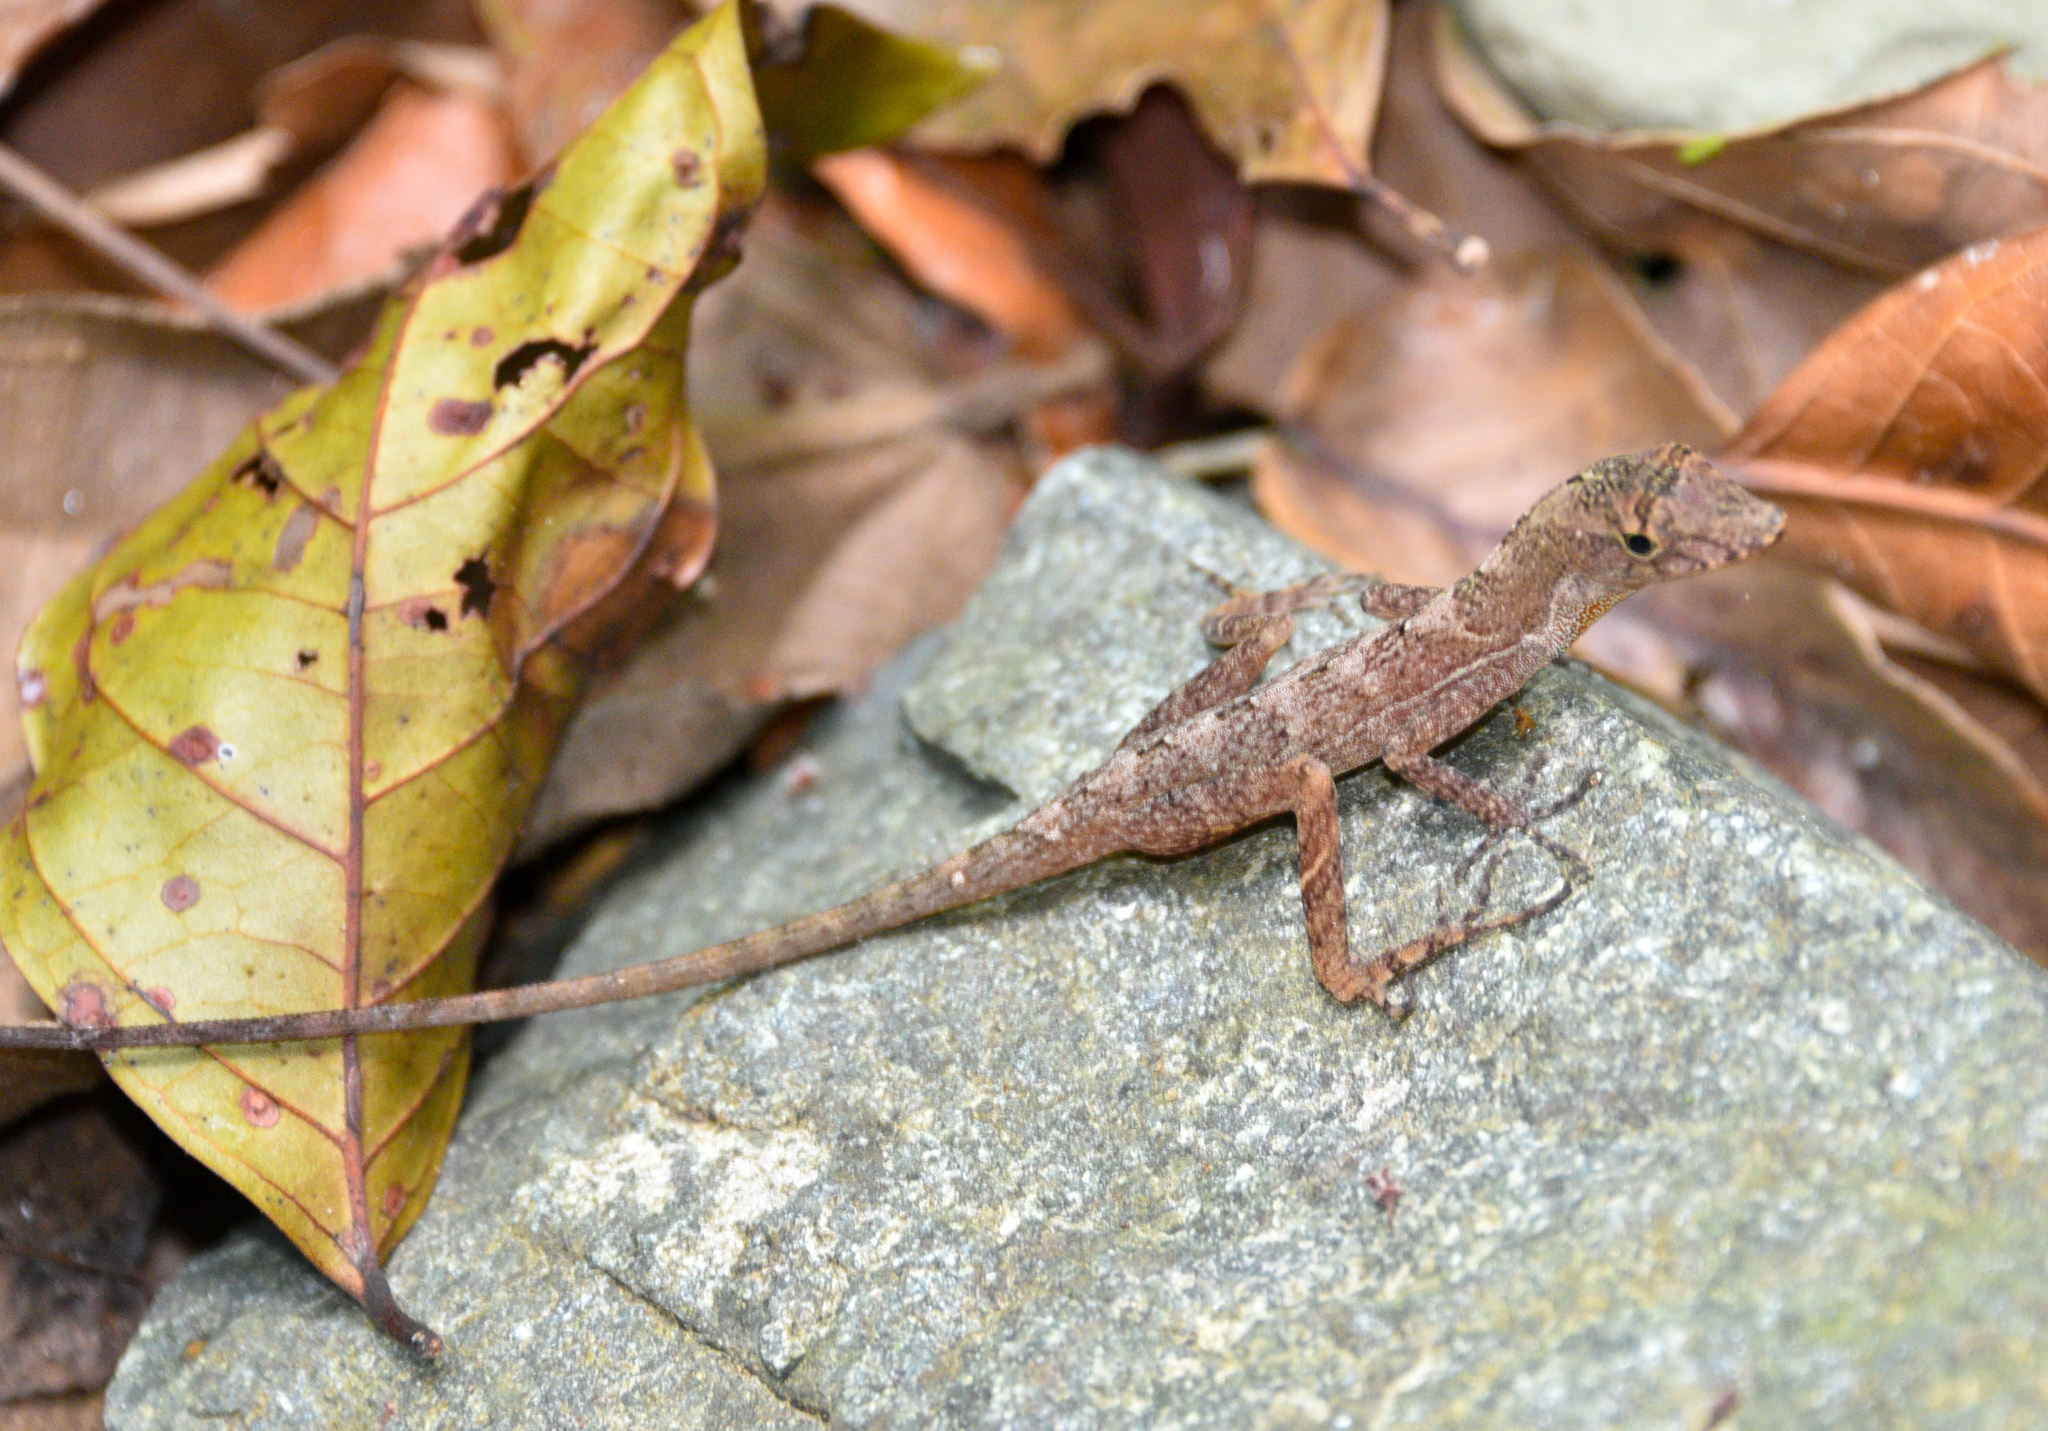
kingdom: Animalia
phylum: Chordata
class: Squamata
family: Dactyloidae
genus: Anolis
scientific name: Anolis osa
